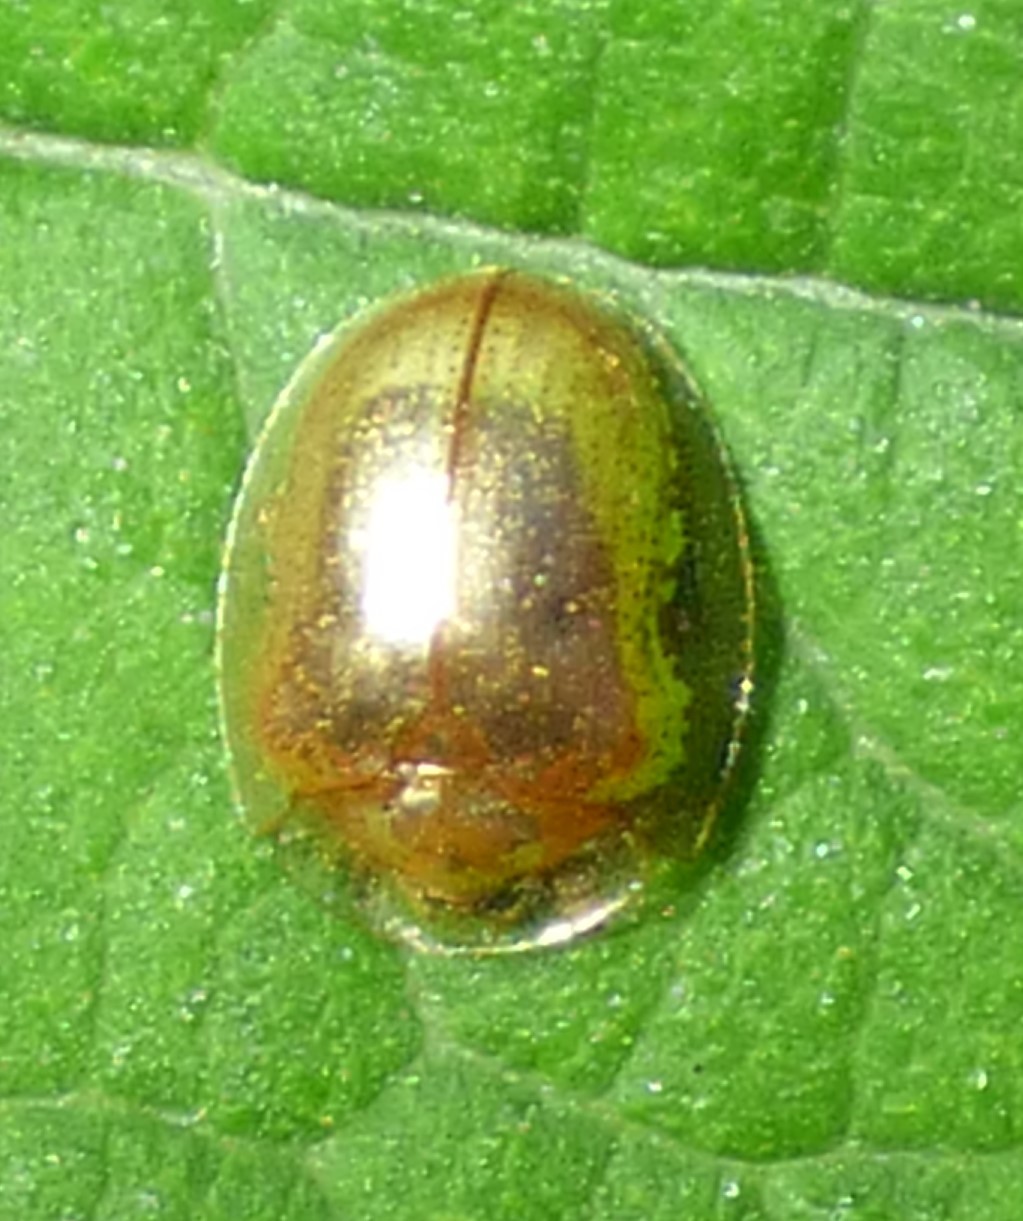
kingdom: Animalia
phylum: Arthropoda
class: Insecta
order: Coleoptera
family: Chrysomelidae
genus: Charidotella
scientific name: Charidotella sexpunctata
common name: Golden tortoise beetle
